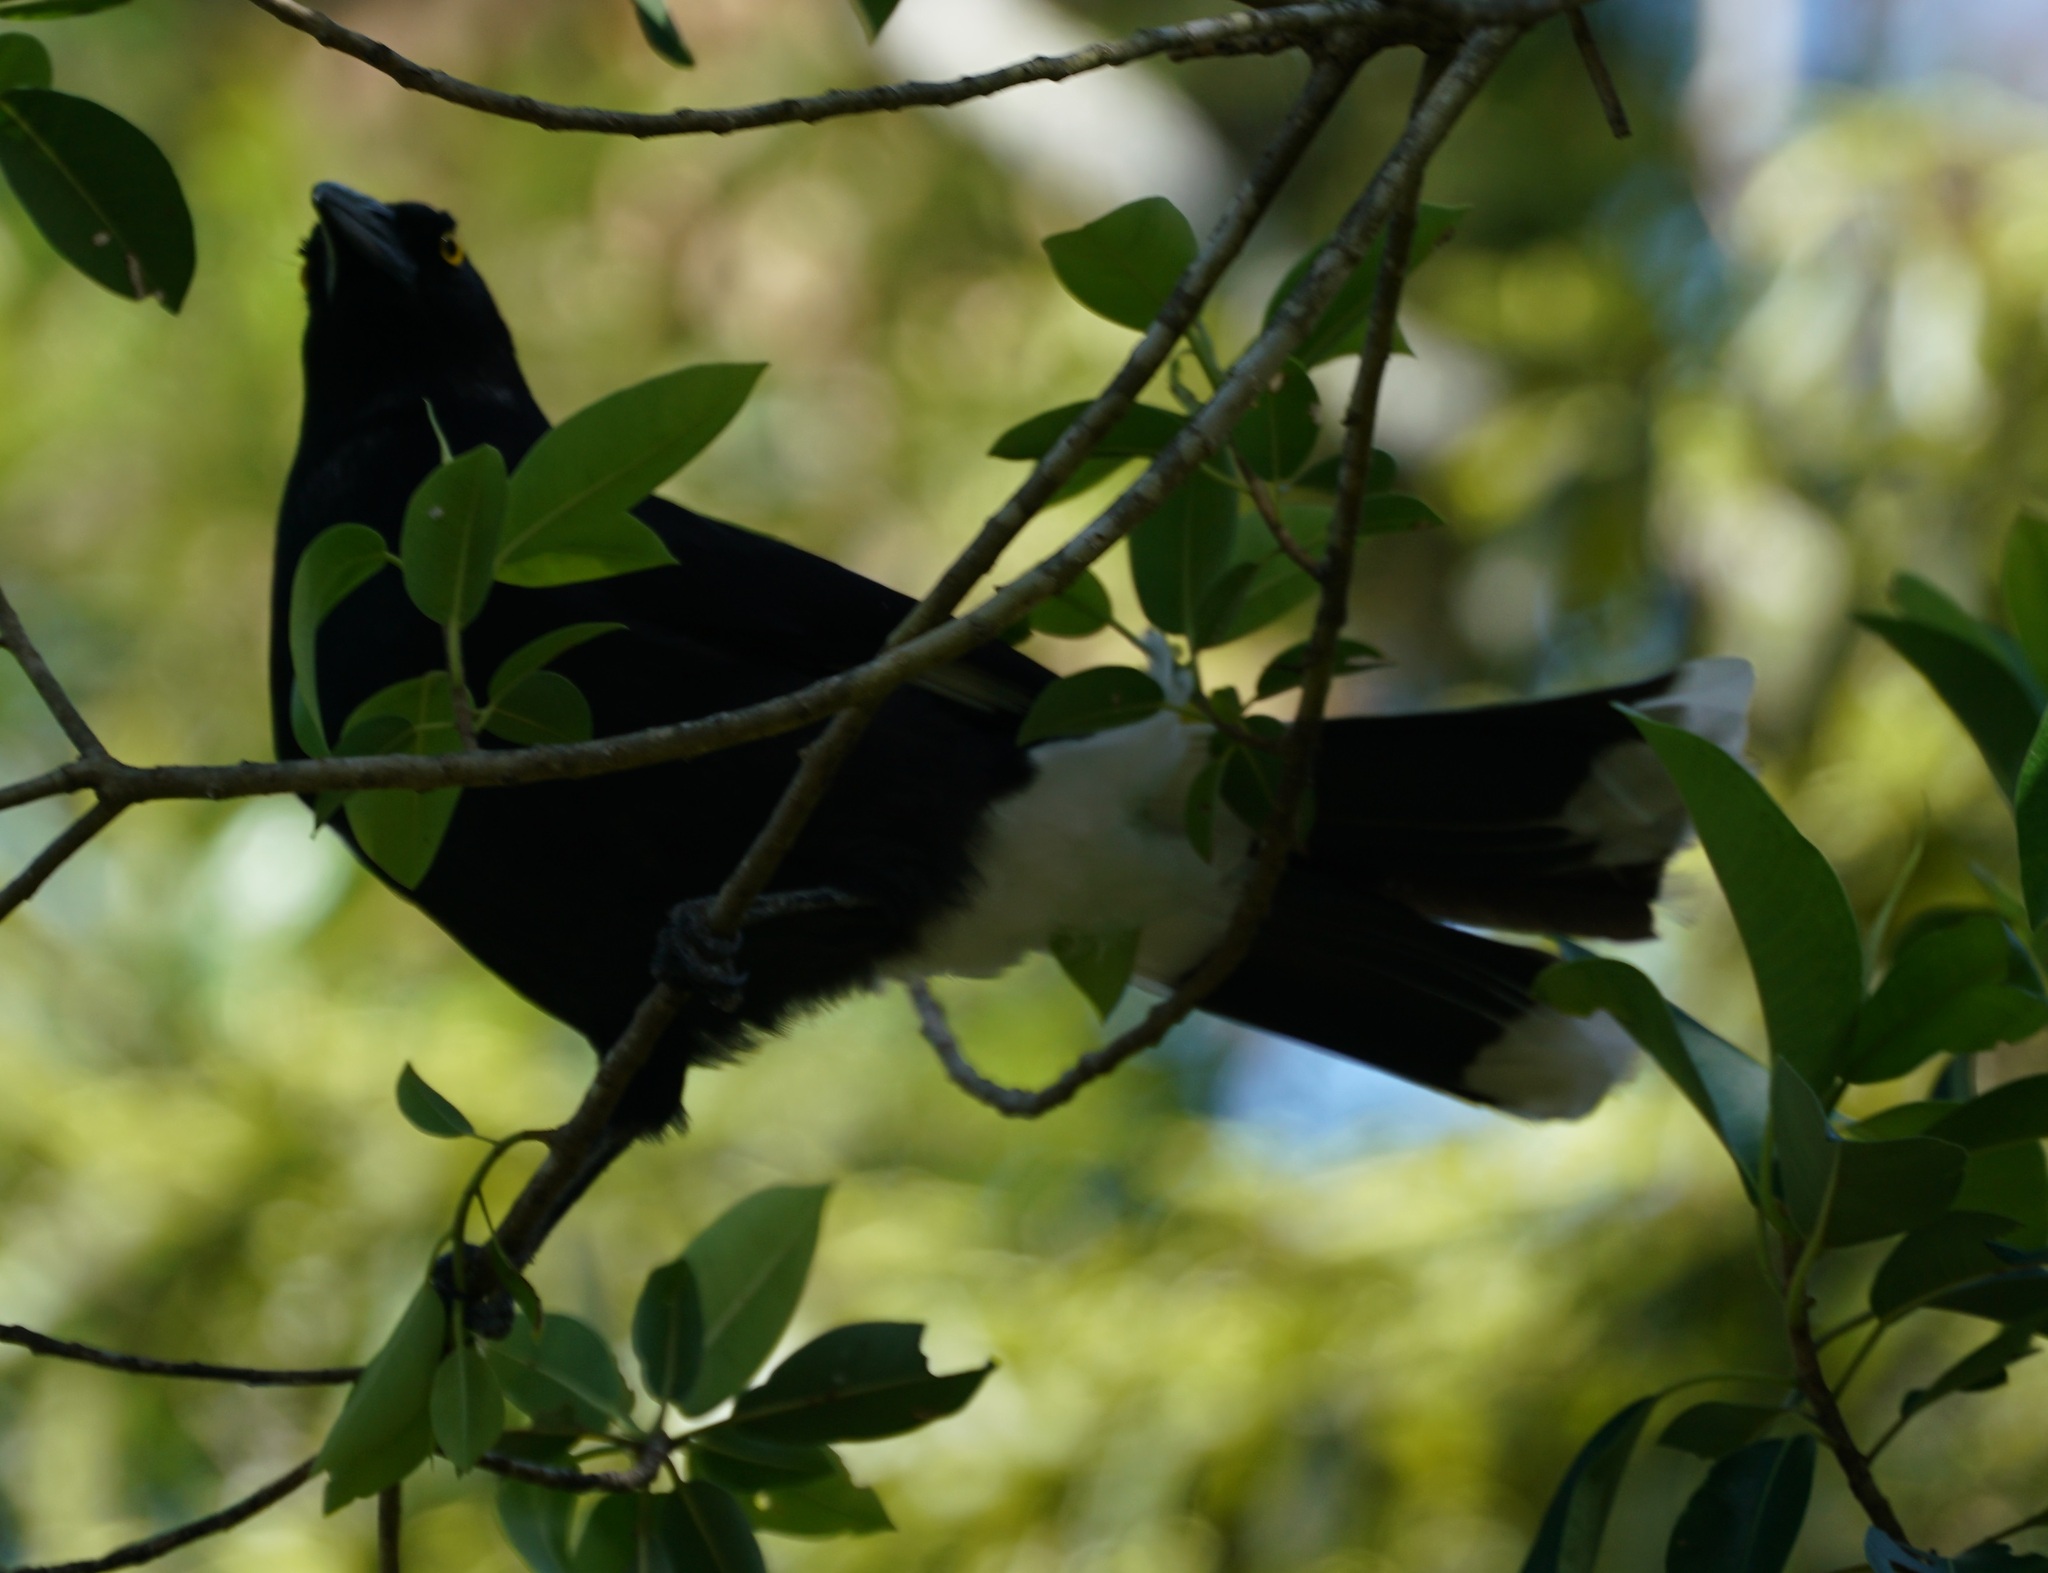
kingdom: Animalia
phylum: Chordata
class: Aves
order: Passeriformes
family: Cracticidae
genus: Strepera
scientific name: Strepera graculina
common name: Pied currawong
